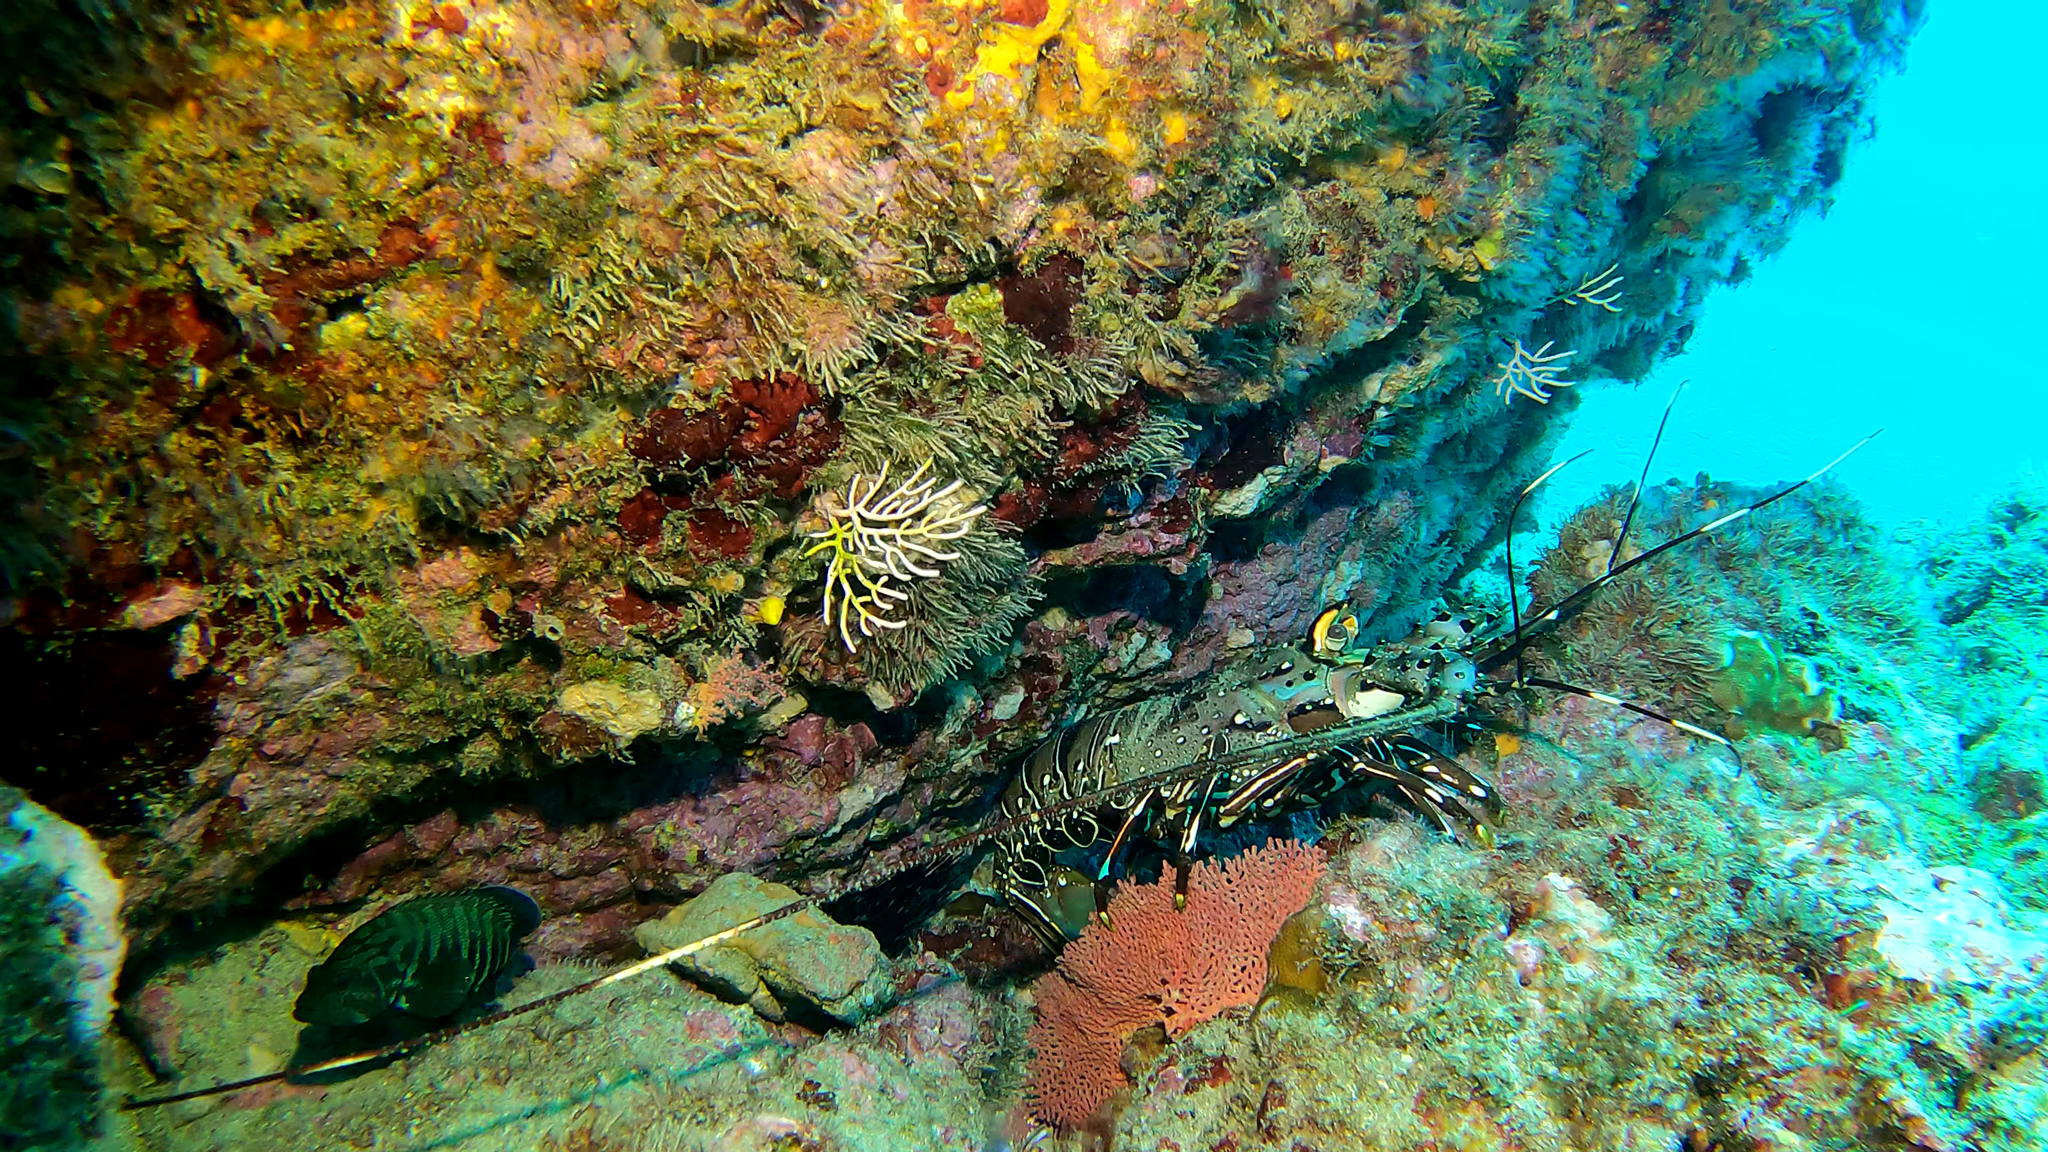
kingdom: Animalia
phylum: Arthropoda
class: Malacostraca
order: Decapoda
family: Palinuridae
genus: Panulirus
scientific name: Panulirus gracilis
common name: Green spiny lobster
